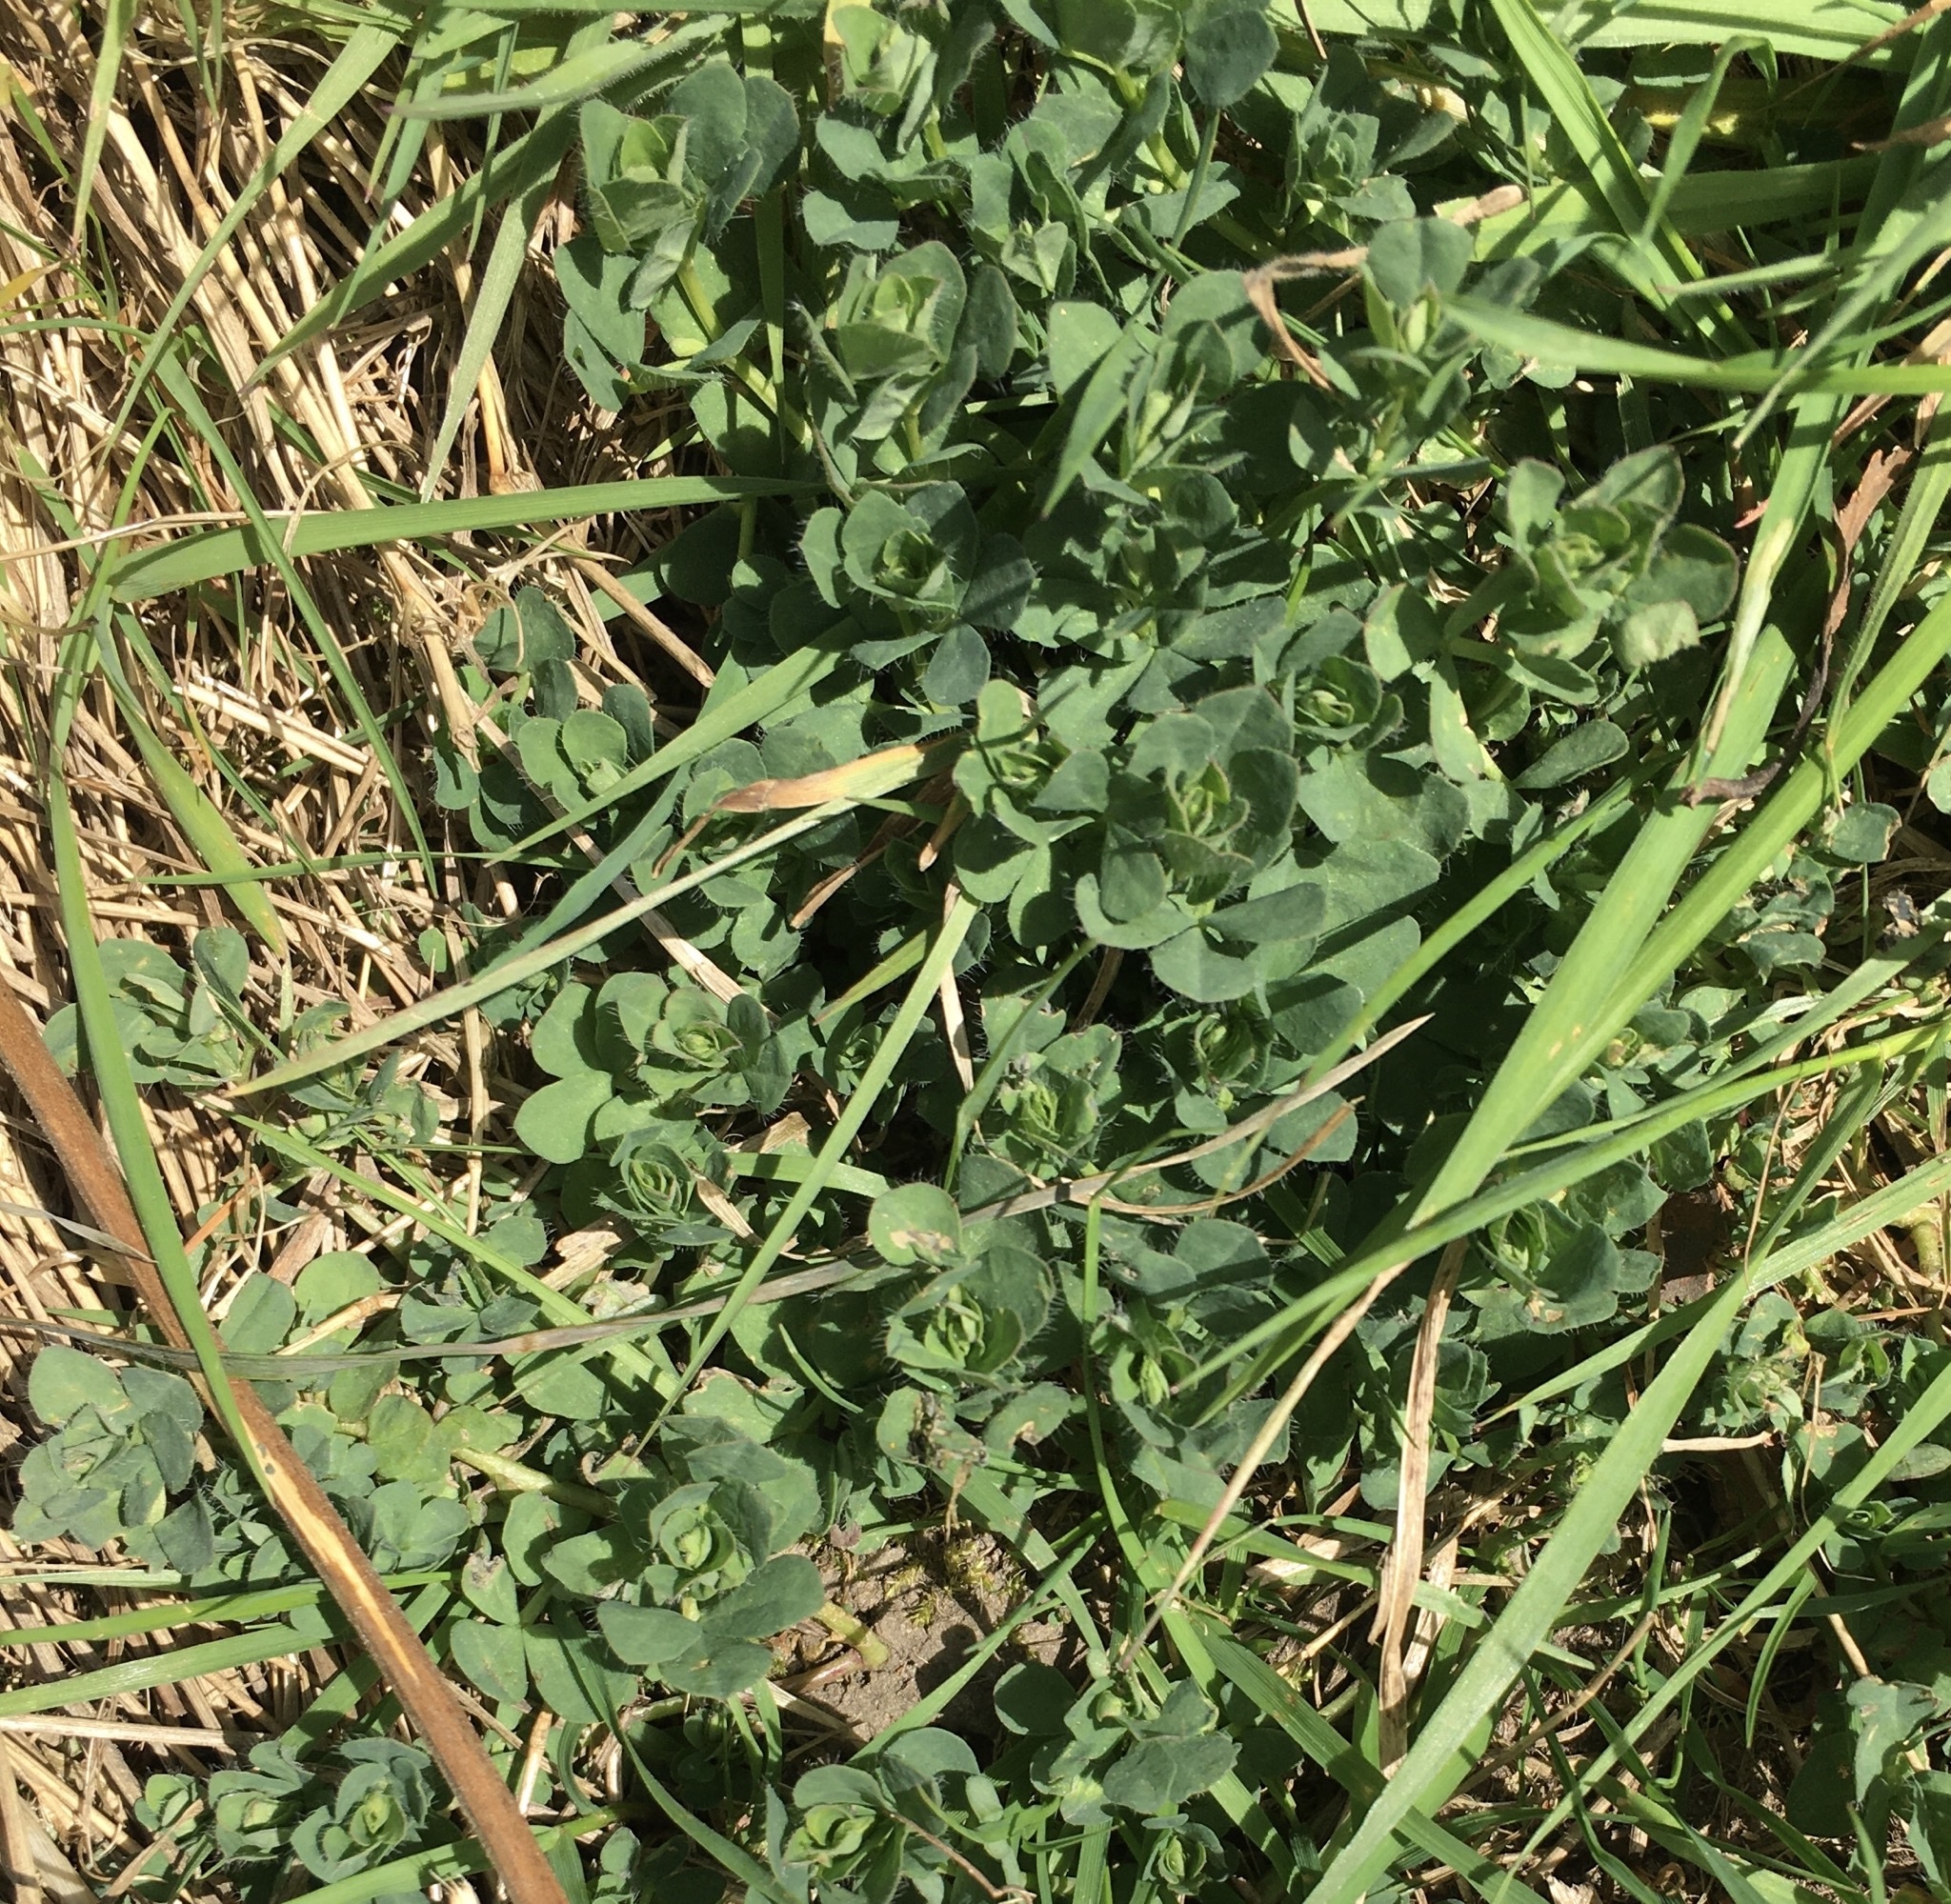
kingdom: Plantae
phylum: Tracheophyta
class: Magnoliopsida
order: Fabales
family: Fabaceae
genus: Lotus
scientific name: Lotus corniculatus
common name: Common bird's-foot-trefoil
